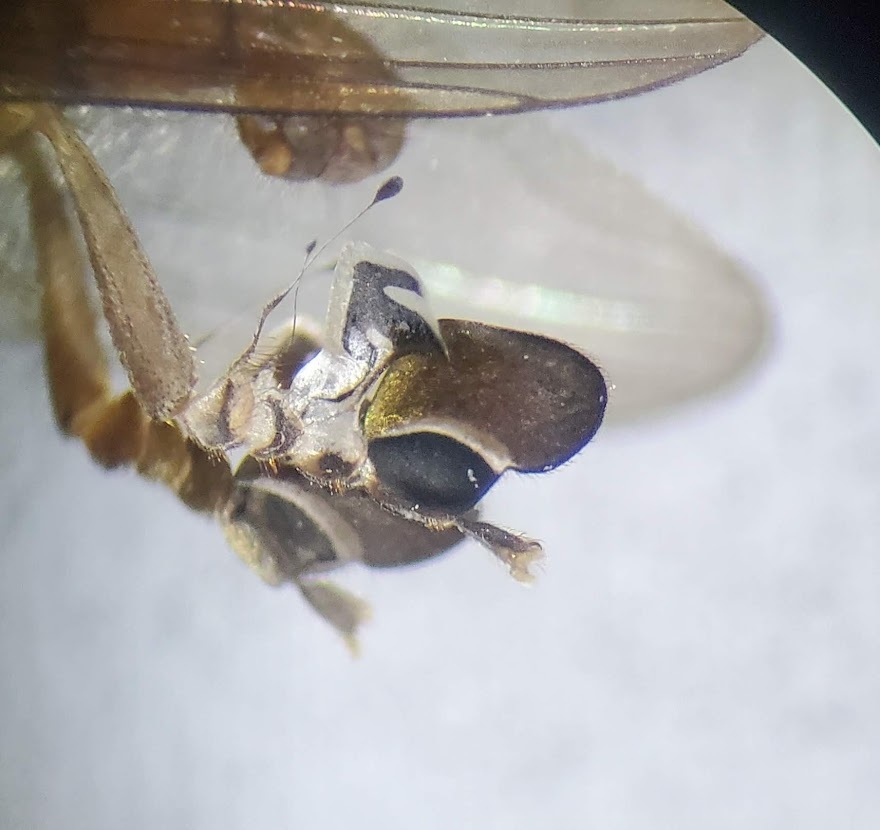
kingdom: Animalia
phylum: Arthropoda
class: Insecta
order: Diptera
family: Platypezidae
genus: Calotarsa
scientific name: Calotarsa insignis
